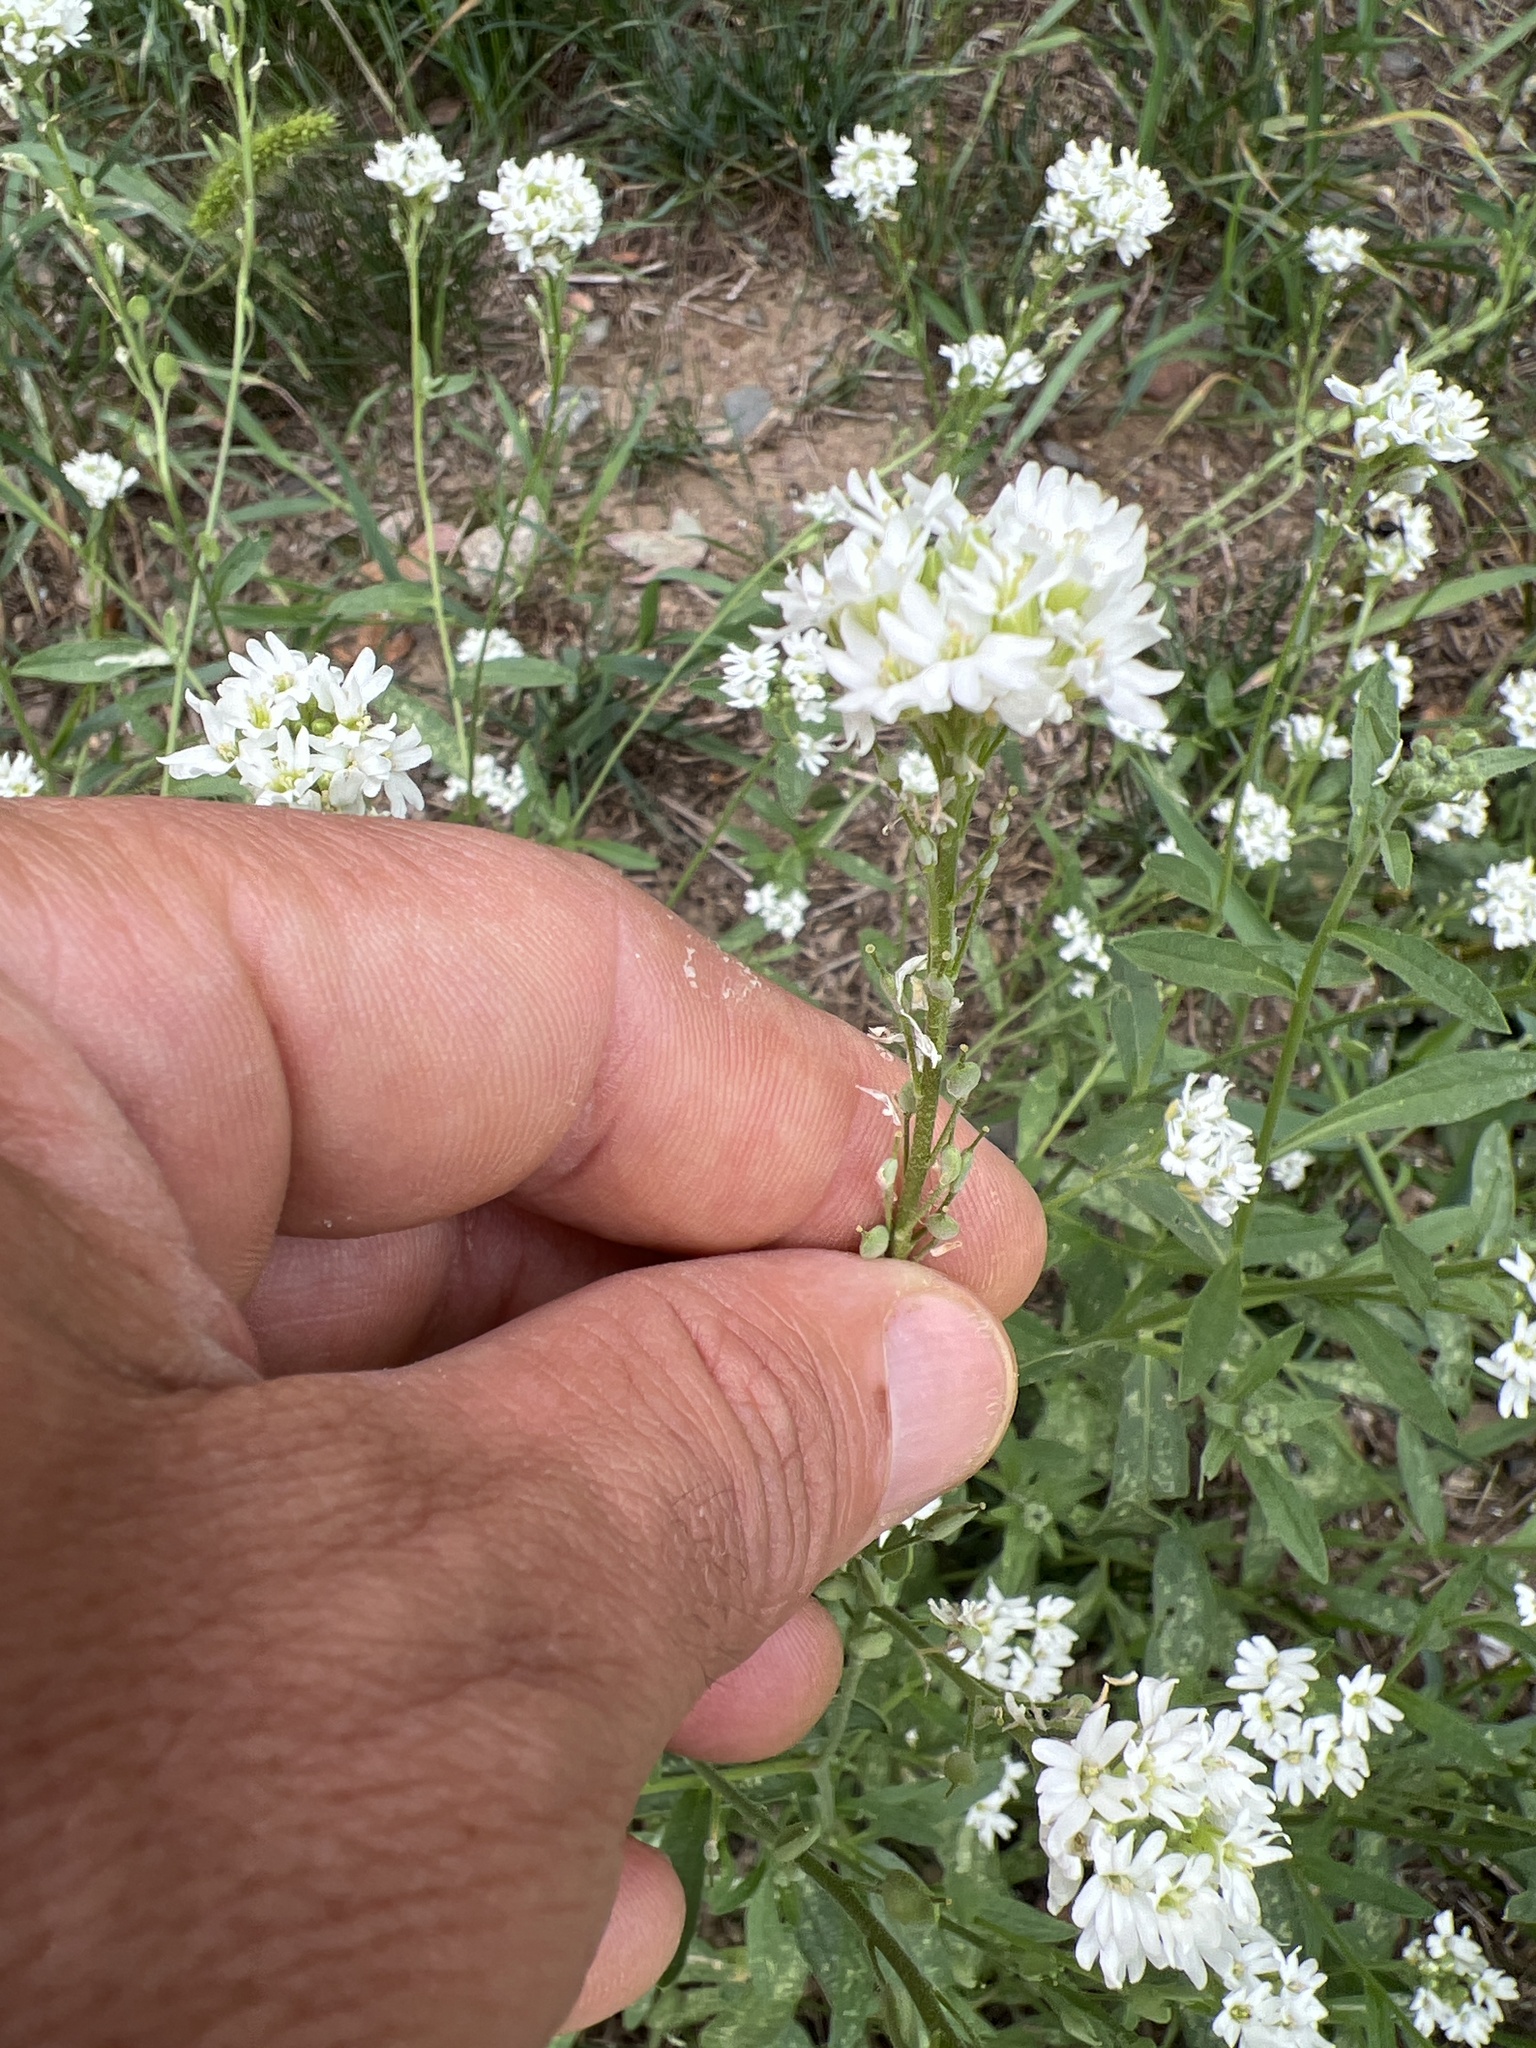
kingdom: Plantae
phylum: Tracheophyta
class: Magnoliopsida
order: Brassicales
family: Brassicaceae
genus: Berteroa
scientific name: Berteroa incana
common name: Hoary alison
